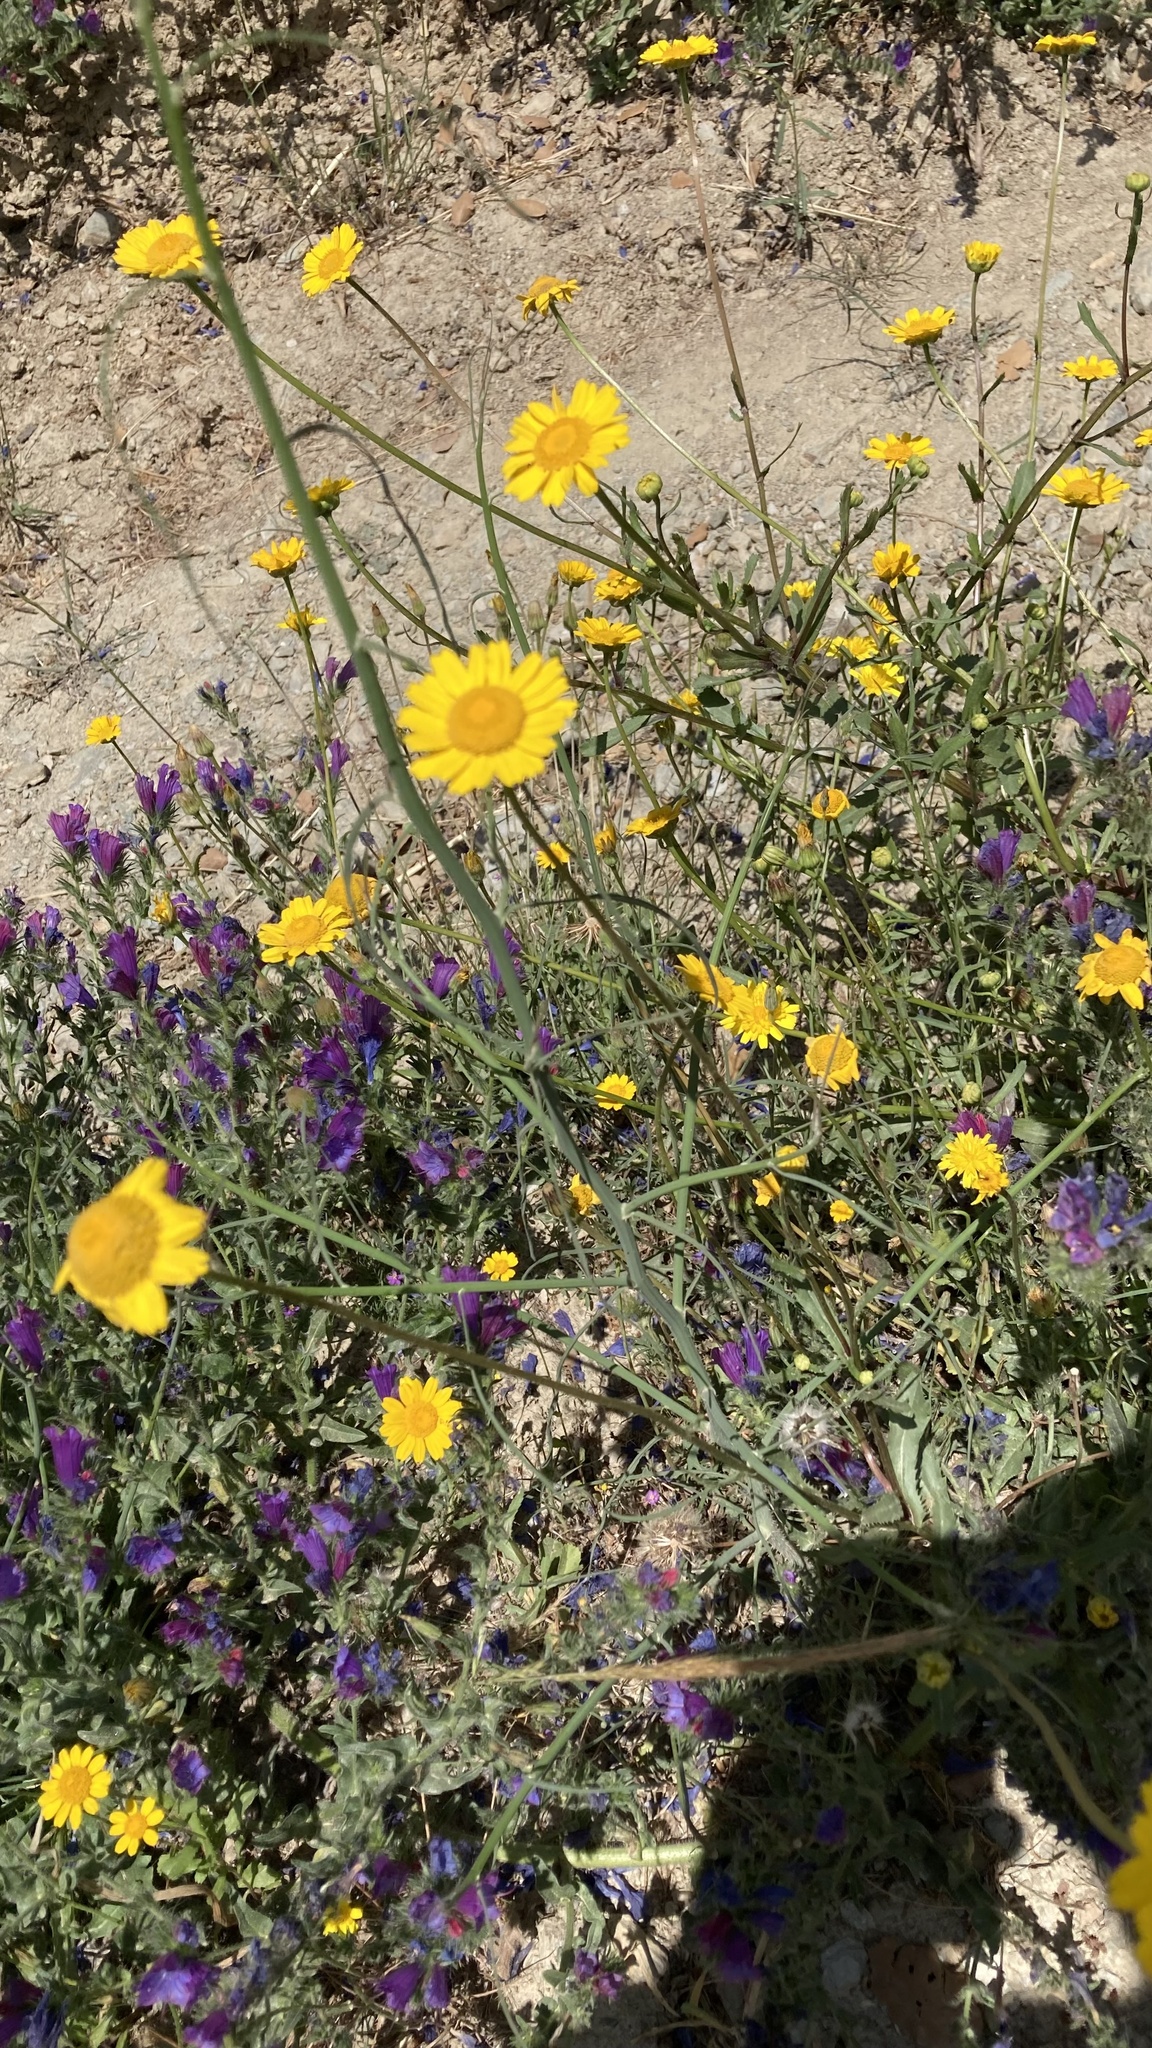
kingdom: Plantae
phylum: Tracheophyta
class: Magnoliopsida
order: Asterales
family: Asteraceae
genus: Coleostephus
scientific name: Coleostephus myconis
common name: Mediterranean marigold
